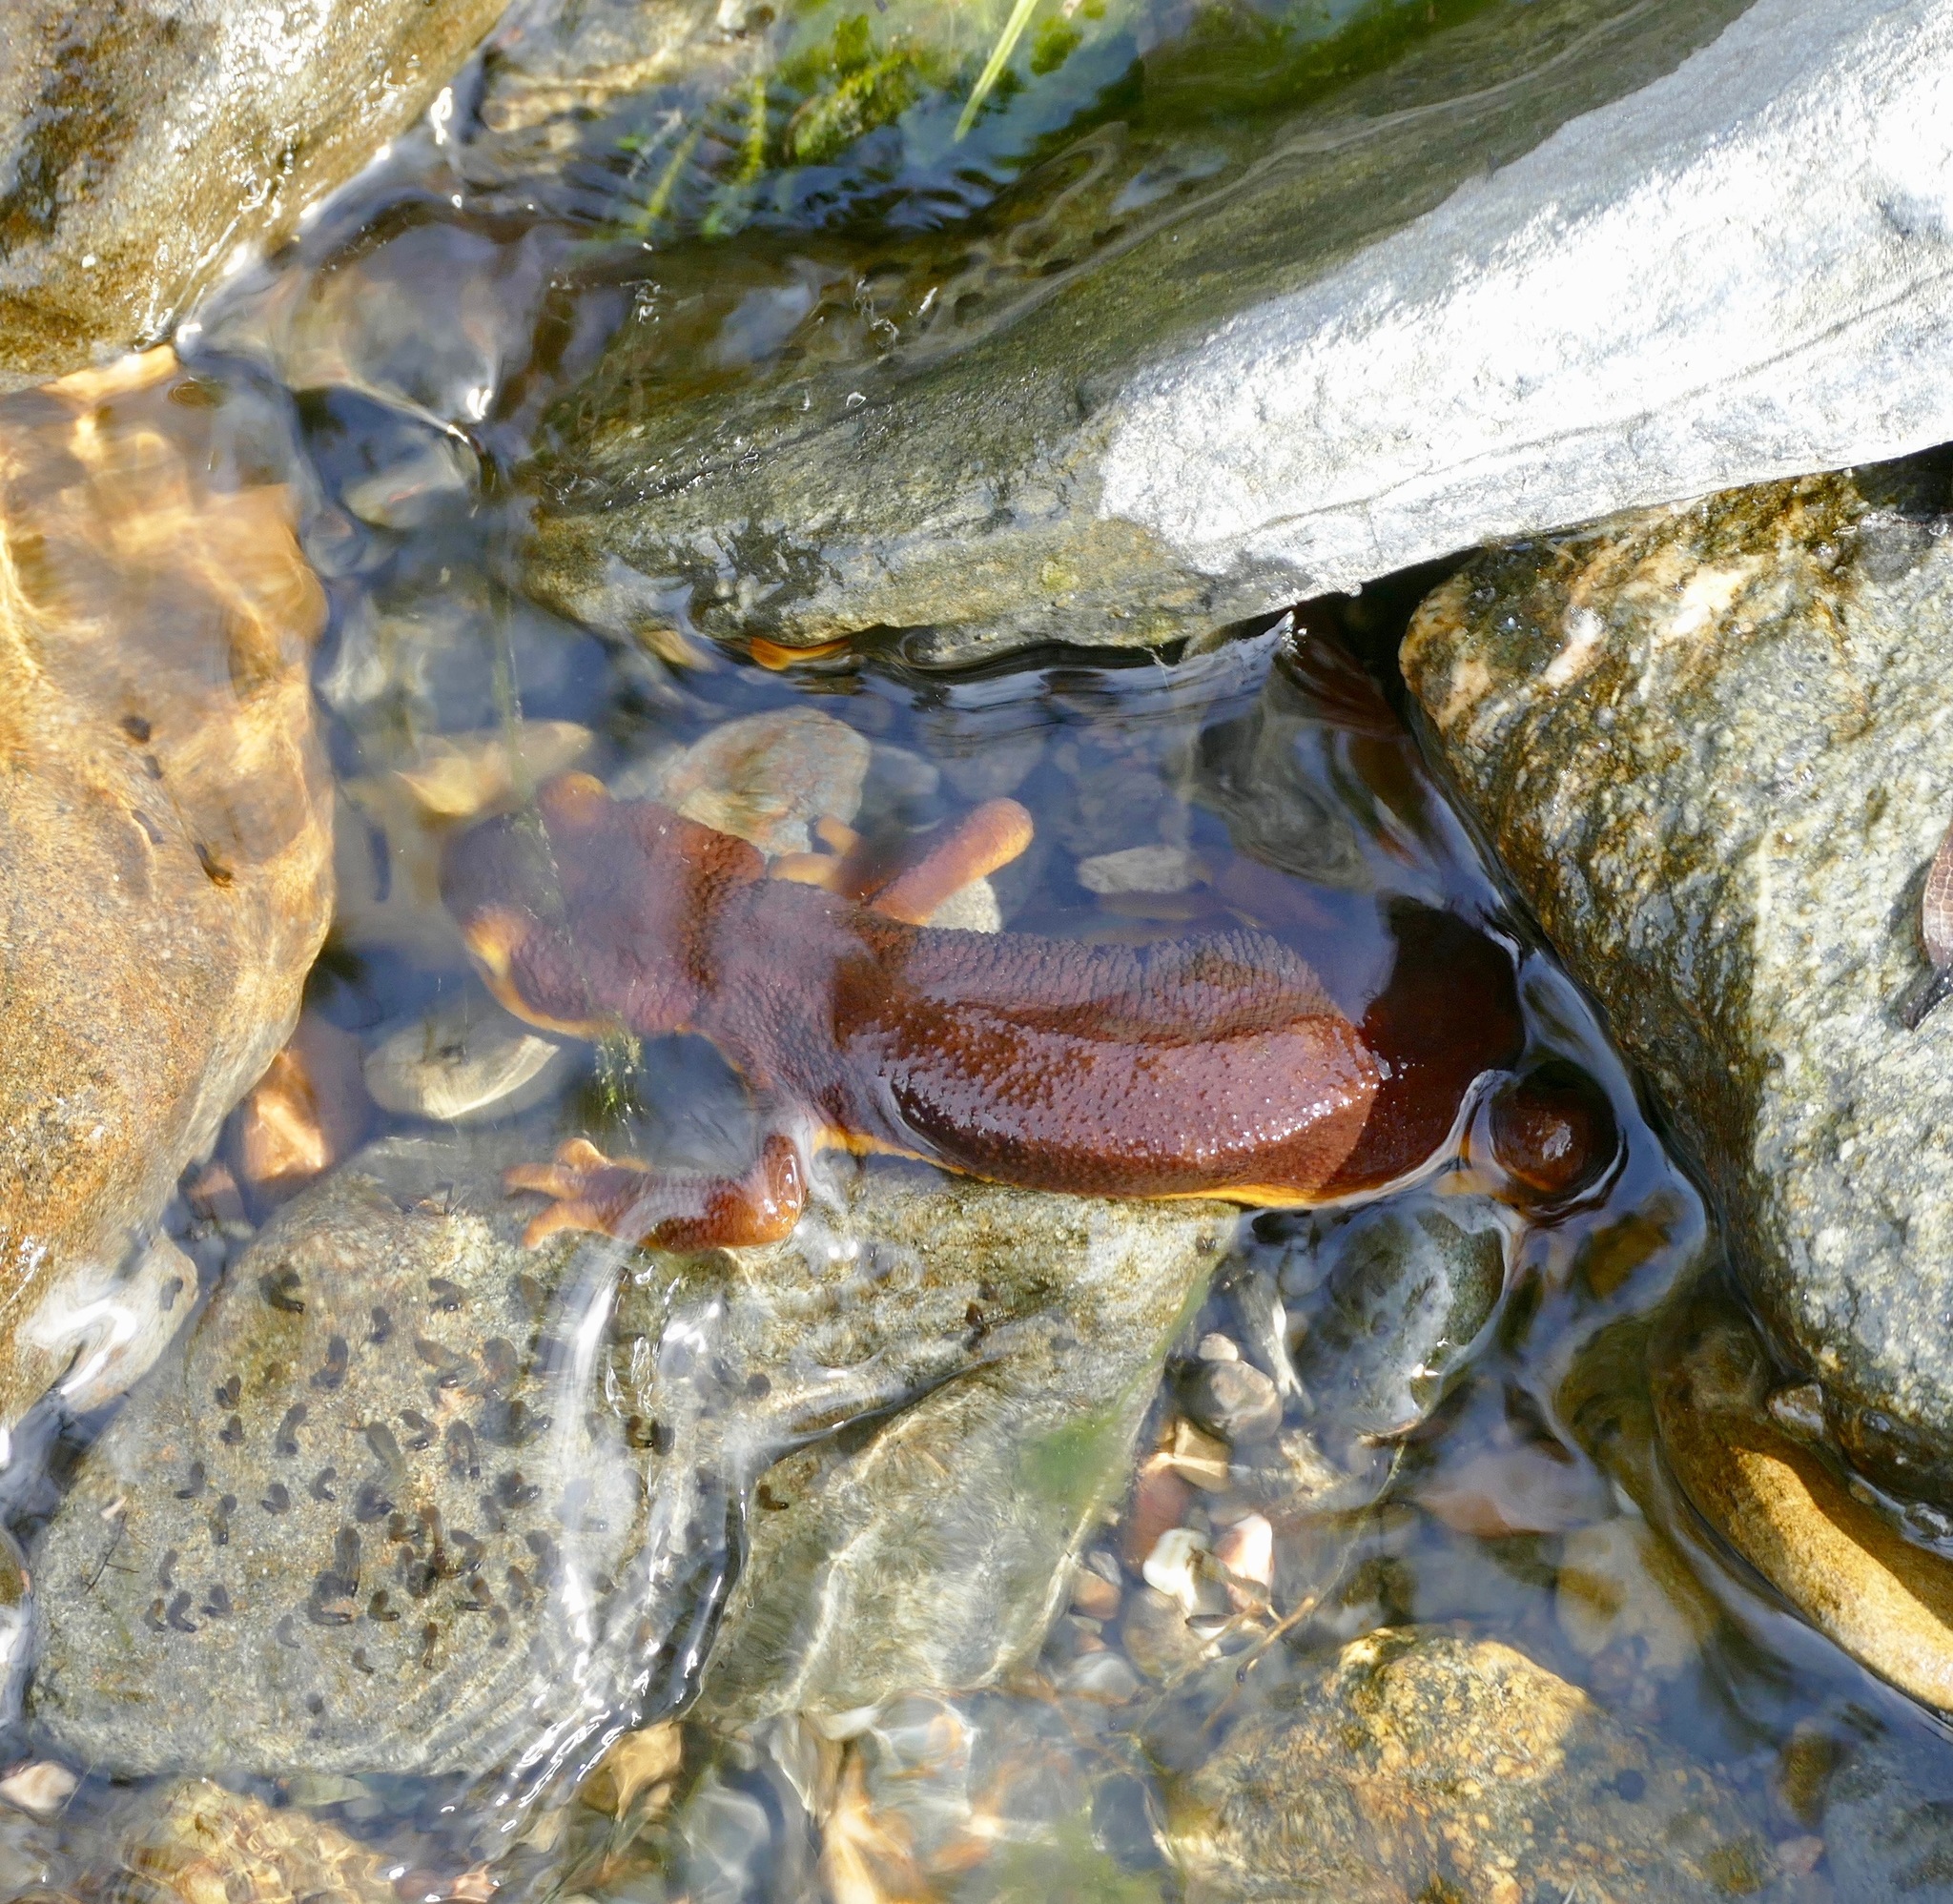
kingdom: Animalia
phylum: Chordata
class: Amphibia
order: Caudata
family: Salamandridae
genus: Taricha
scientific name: Taricha torosa
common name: California newt
